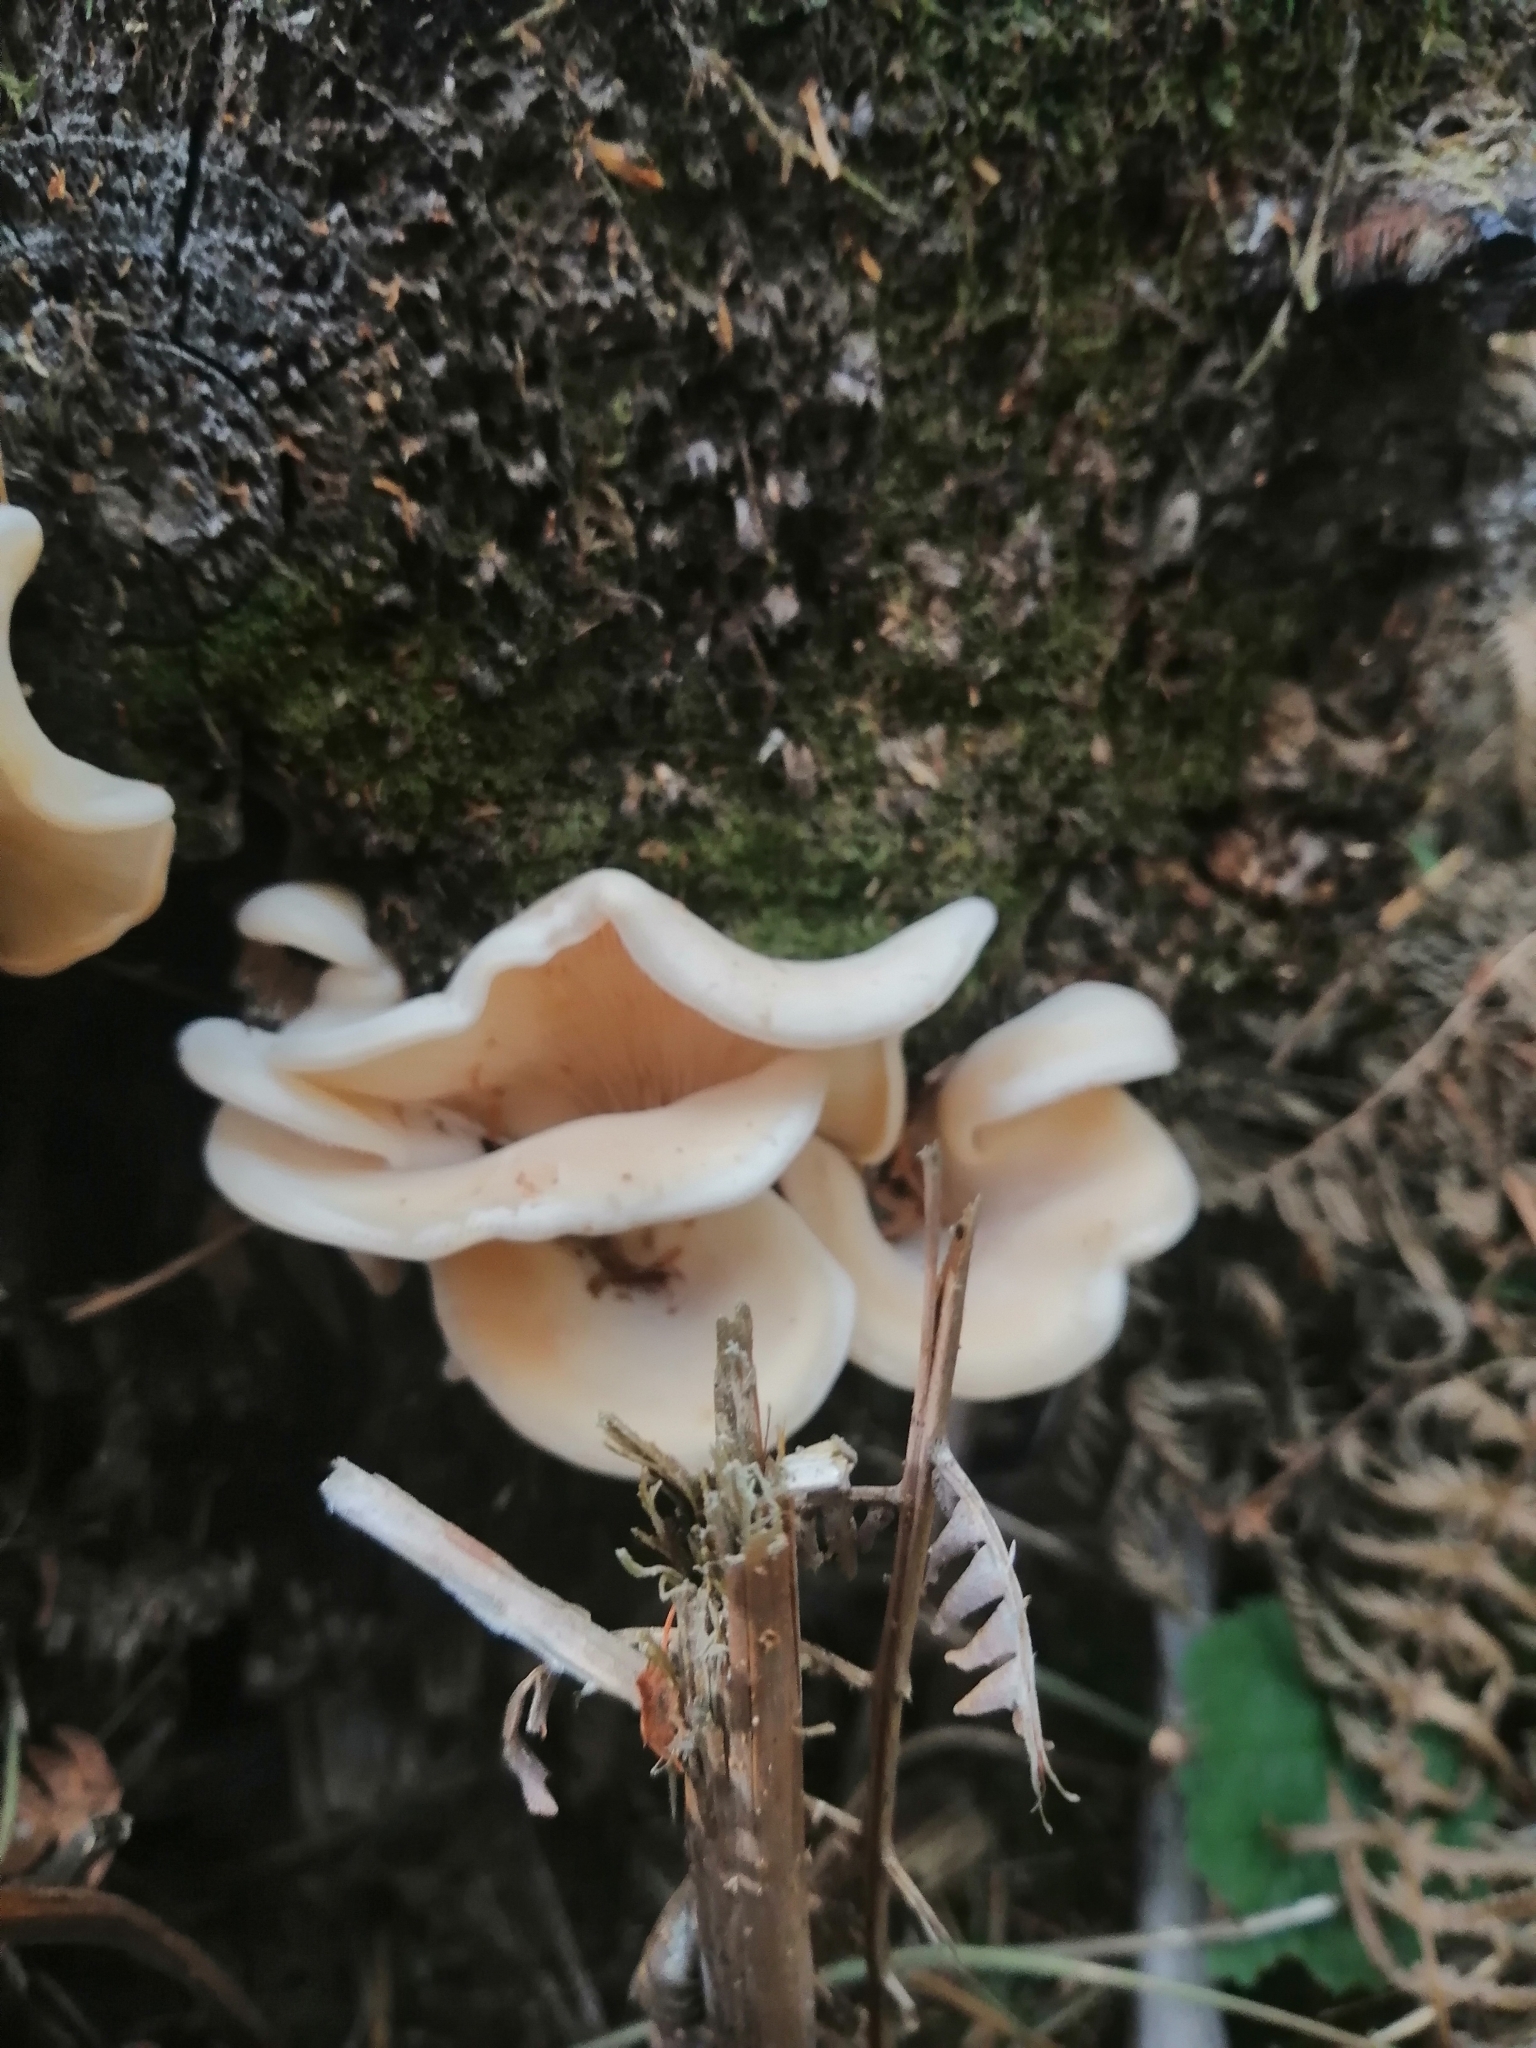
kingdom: Fungi
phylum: Basidiomycota
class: Agaricomycetes
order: Agaricales
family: Marasmiaceae
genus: Pleurocybella
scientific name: Pleurocybella porrigens
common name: Angel's wings
